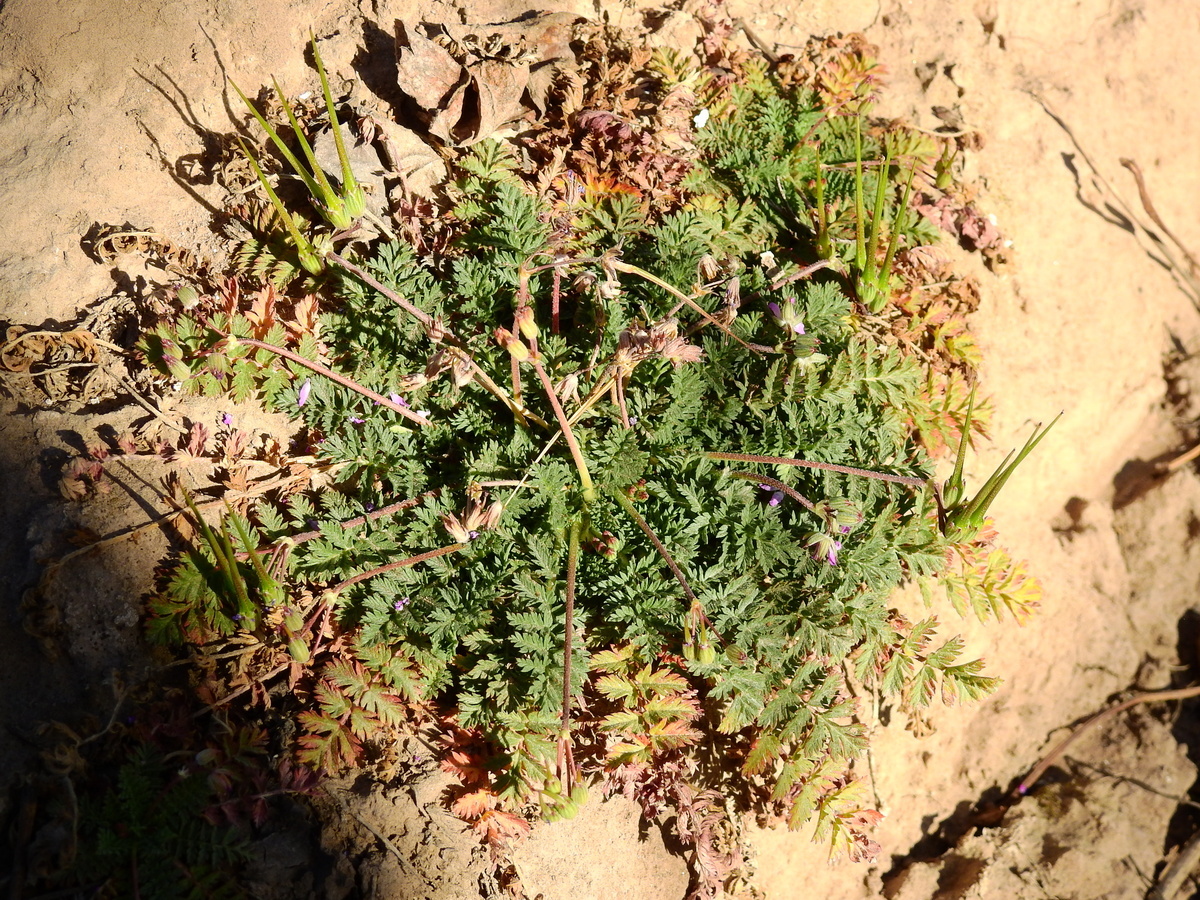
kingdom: Plantae
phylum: Tracheophyta
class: Magnoliopsida
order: Geraniales
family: Geraniaceae
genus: Erodium
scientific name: Erodium cicutarium
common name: Common stork's-bill
